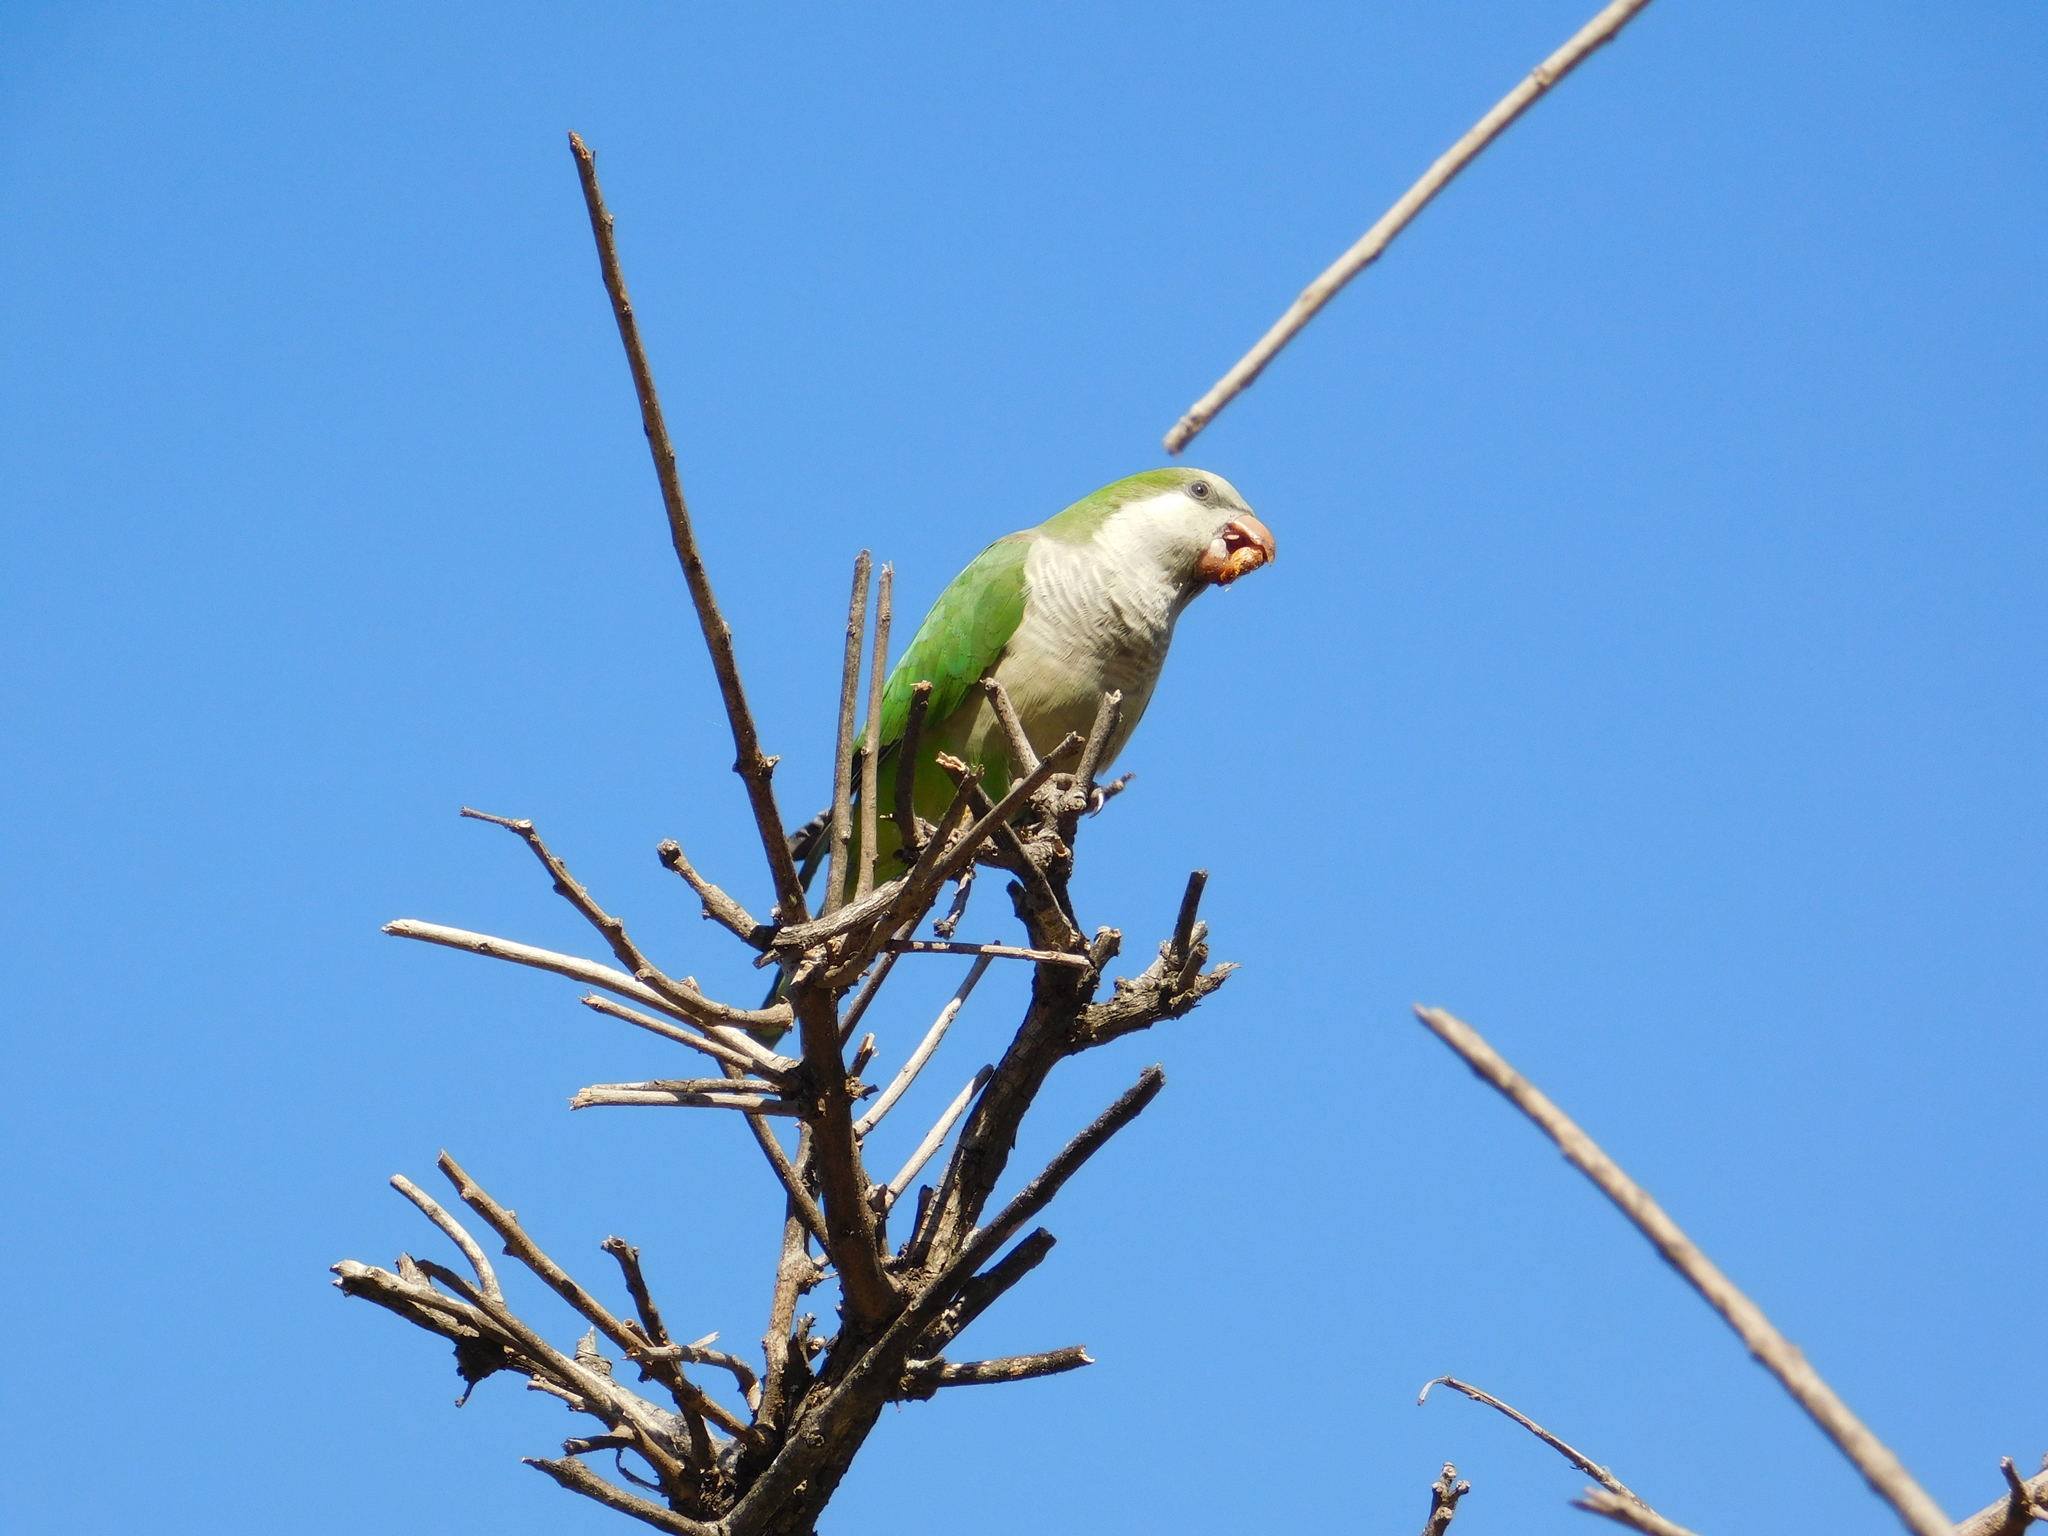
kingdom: Animalia
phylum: Chordata
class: Aves
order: Psittaciformes
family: Psittacidae
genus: Myiopsitta
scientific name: Myiopsitta monachus
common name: Monk parakeet
